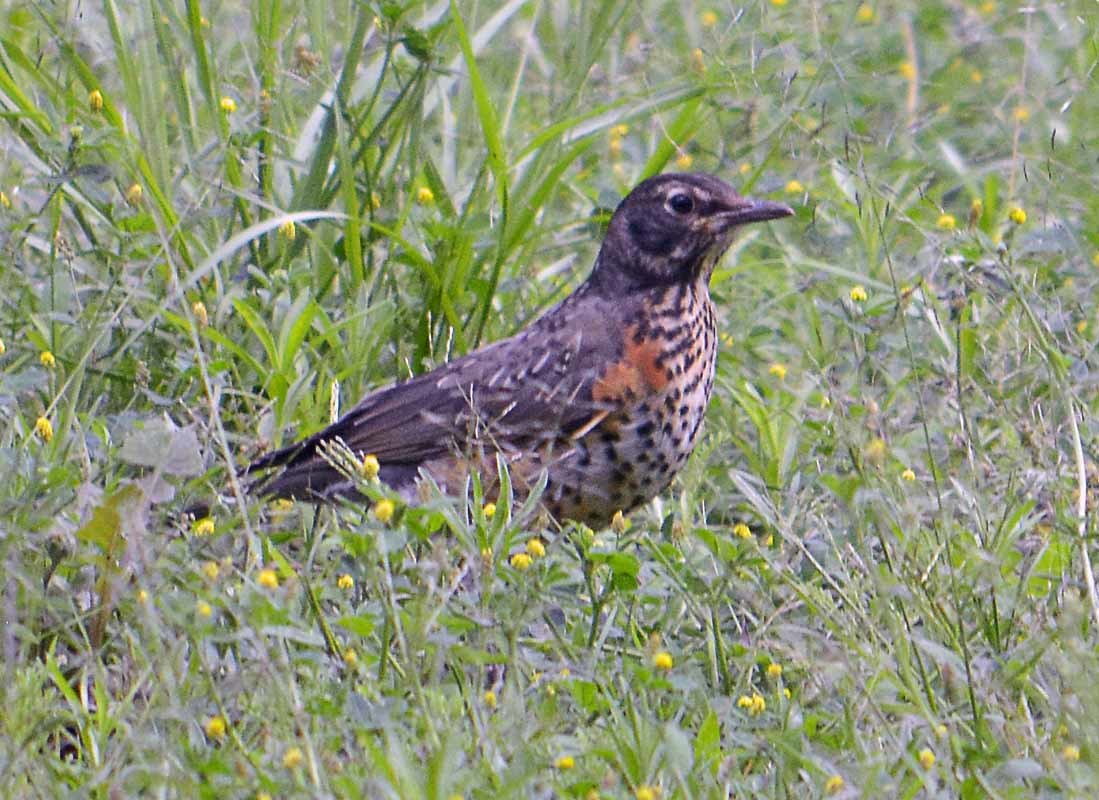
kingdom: Animalia
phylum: Chordata
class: Aves
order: Passeriformes
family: Turdidae
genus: Turdus
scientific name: Turdus migratorius
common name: American robin
